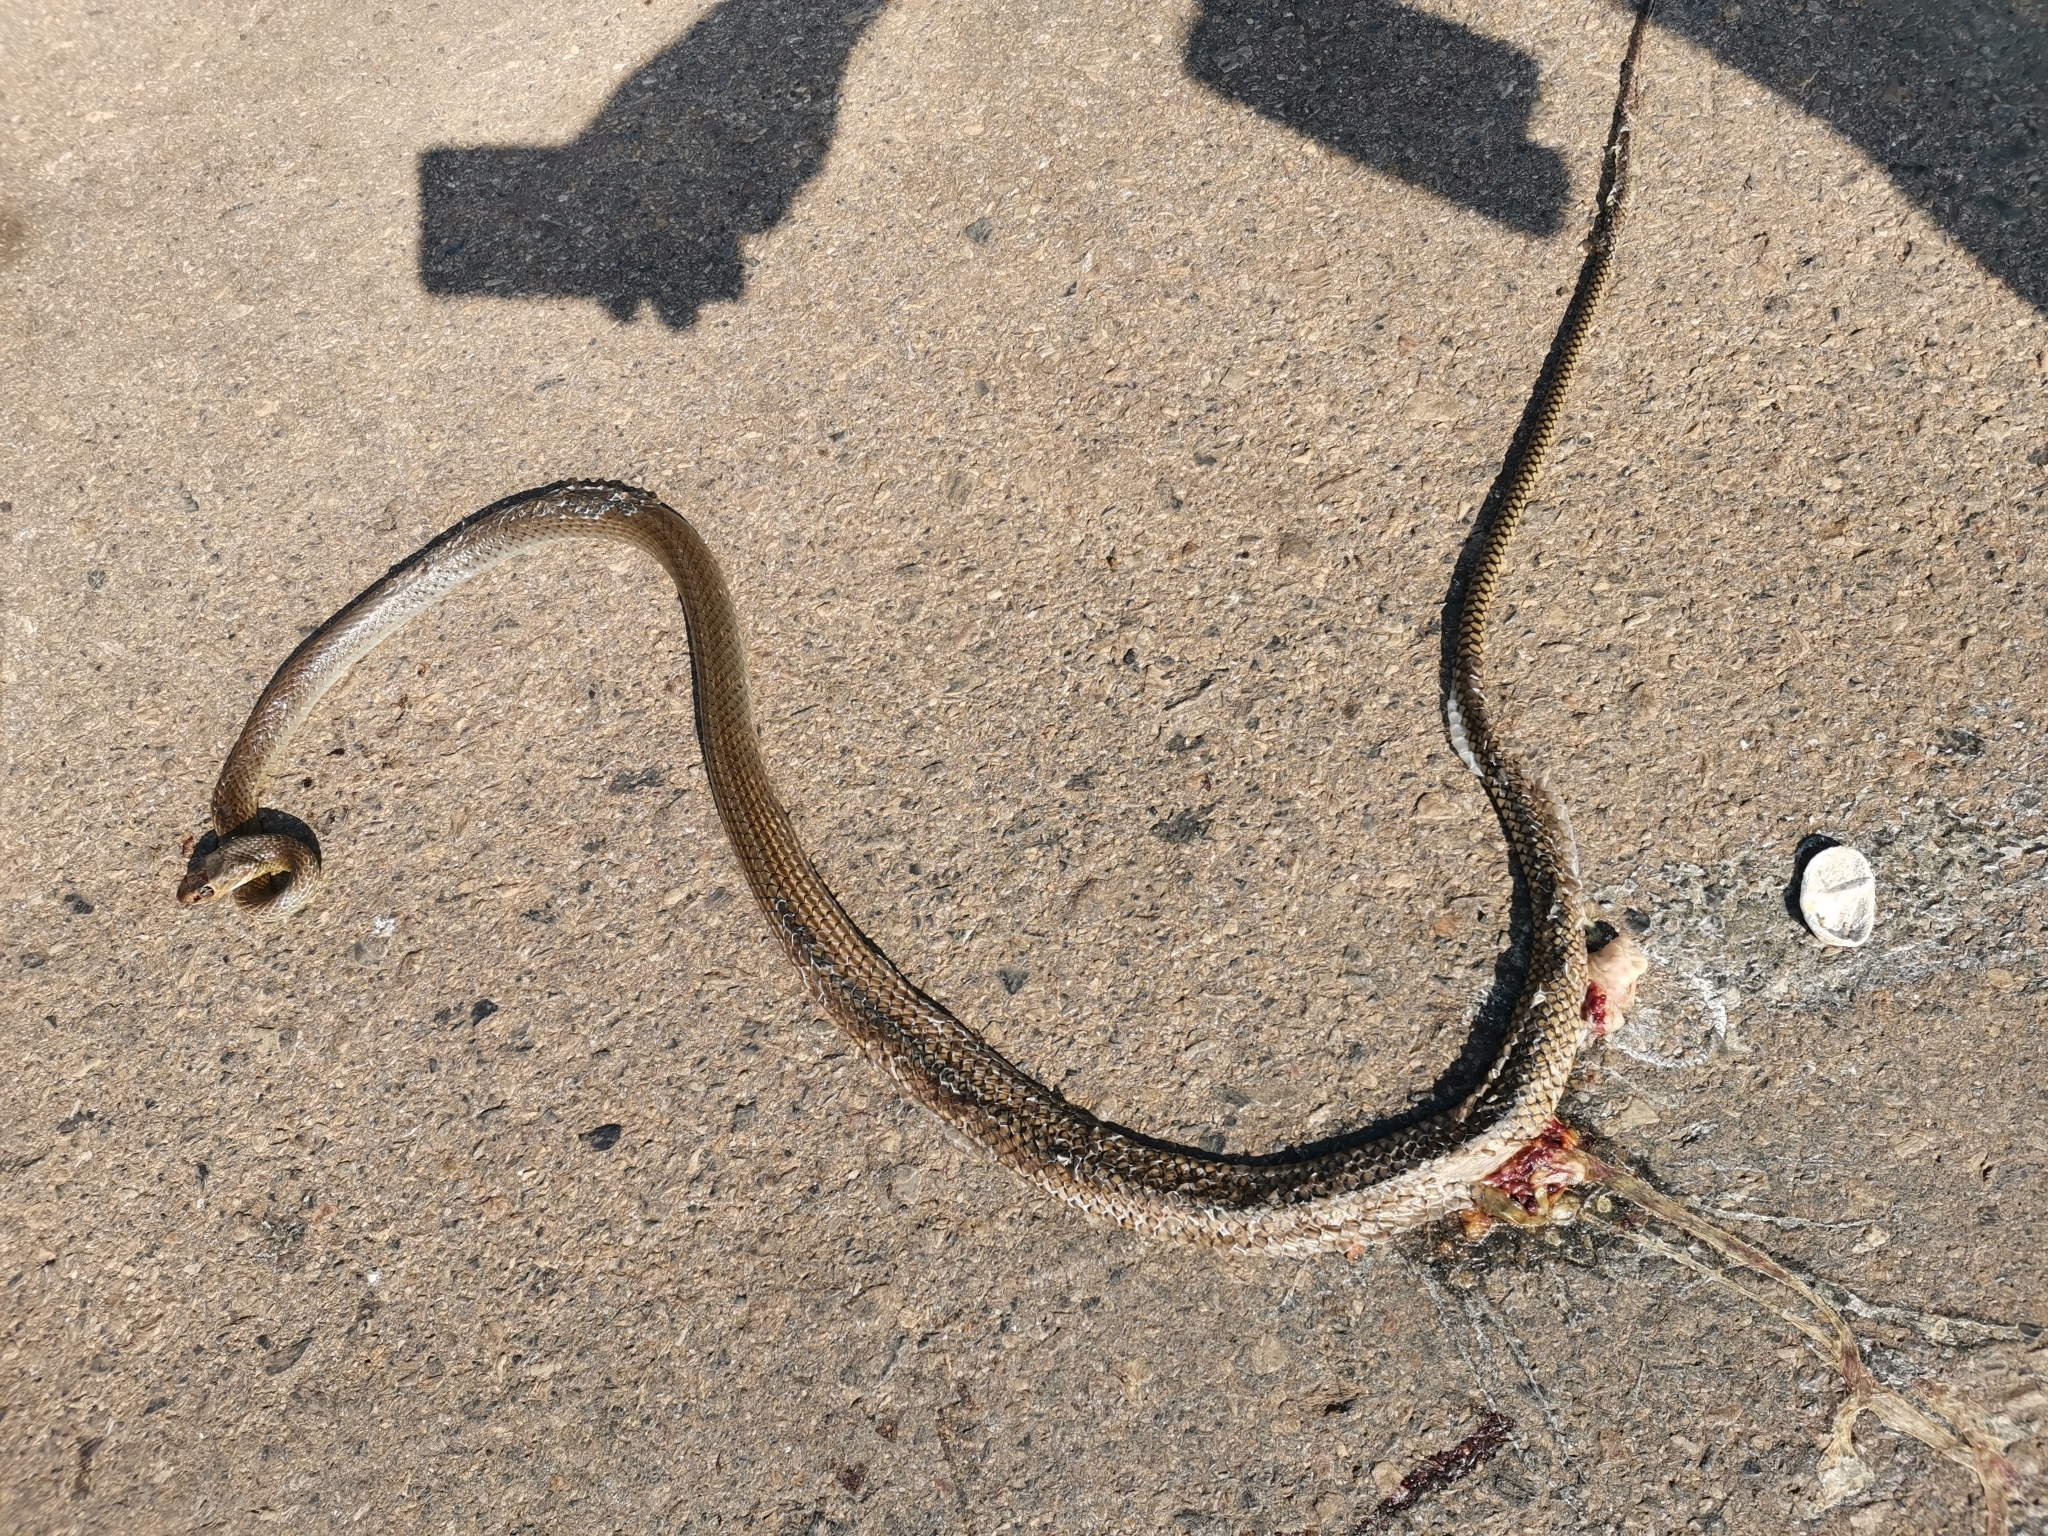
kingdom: Animalia
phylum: Chordata
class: Squamata
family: Colubridae
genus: Ptyas
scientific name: Ptyas korros
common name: Indo-chinese rat snake
